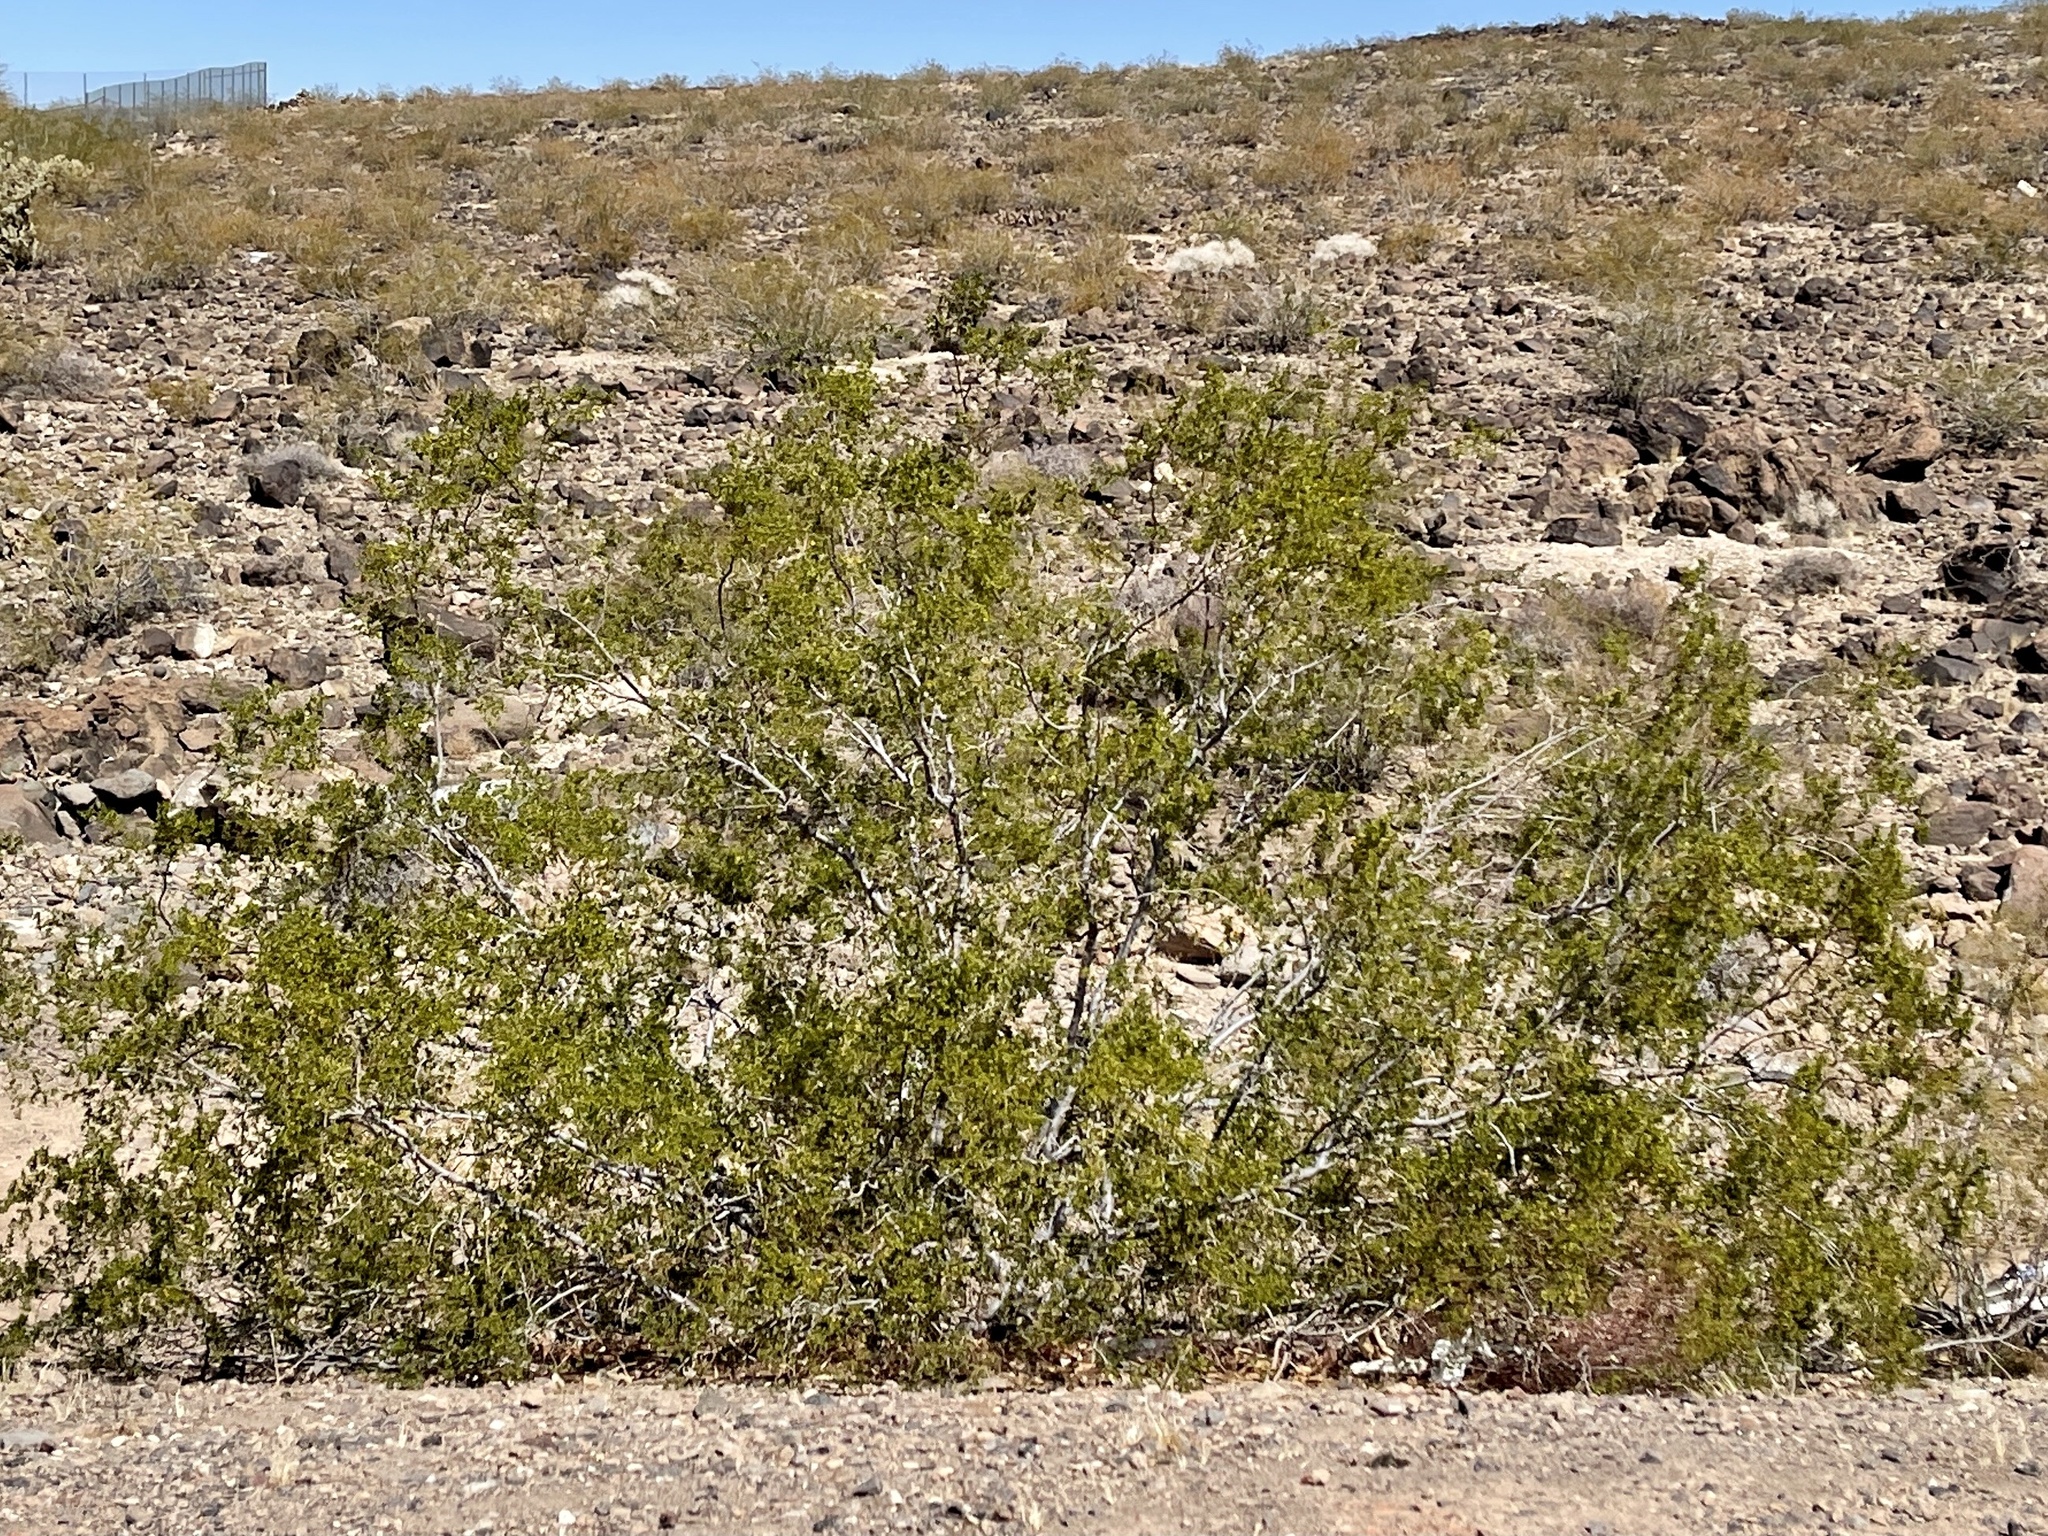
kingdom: Plantae
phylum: Tracheophyta
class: Magnoliopsida
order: Zygophyllales
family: Zygophyllaceae
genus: Larrea
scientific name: Larrea tridentata
